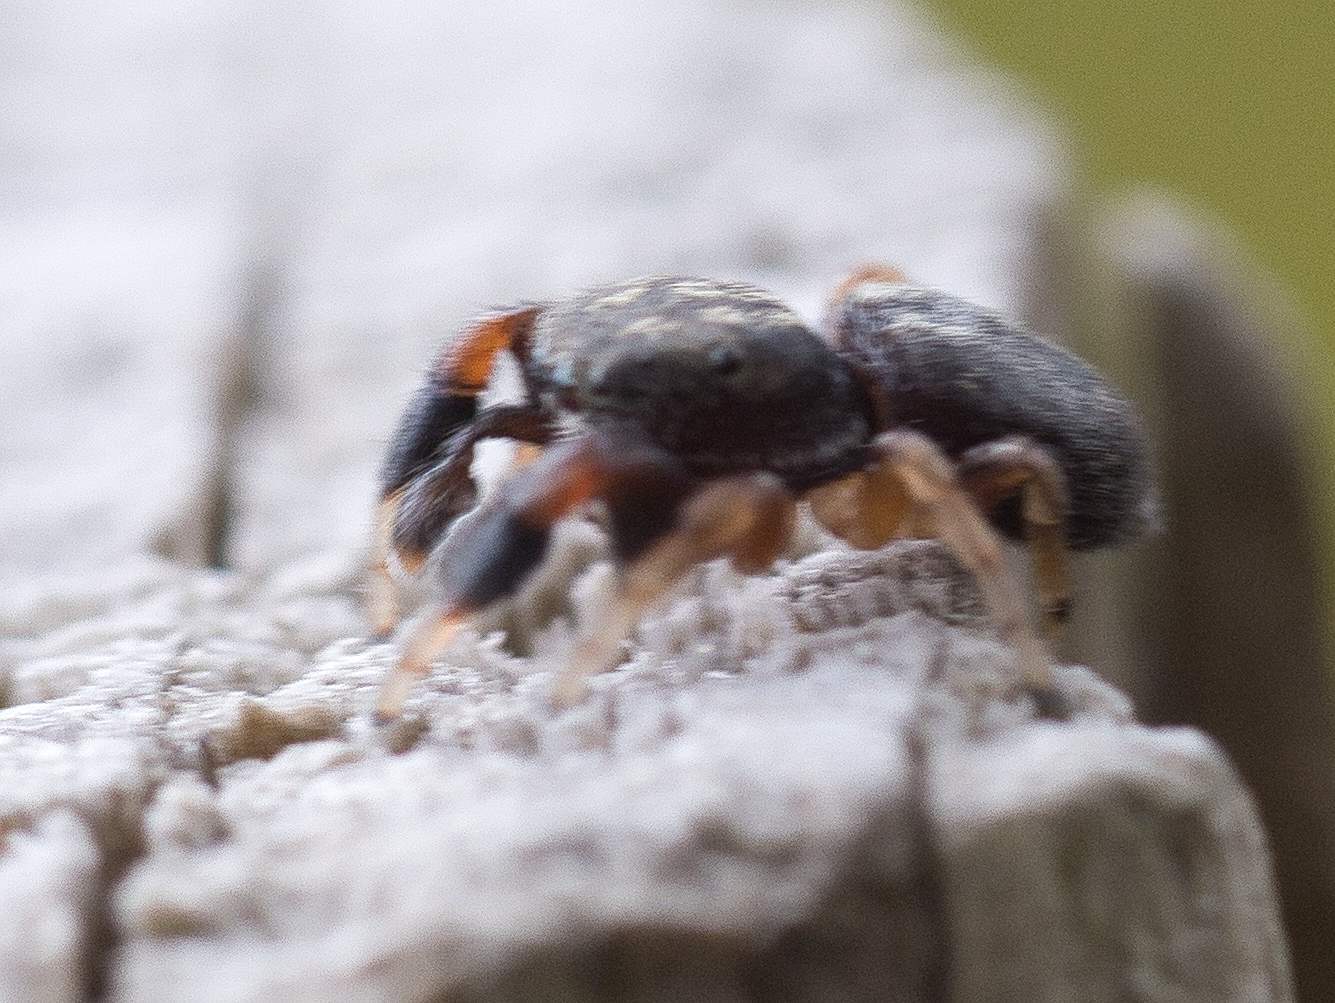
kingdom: Animalia
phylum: Arthropoda
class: Arachnida
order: Araneae
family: Salticidae
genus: Ballus
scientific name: Ballus chalybeius
